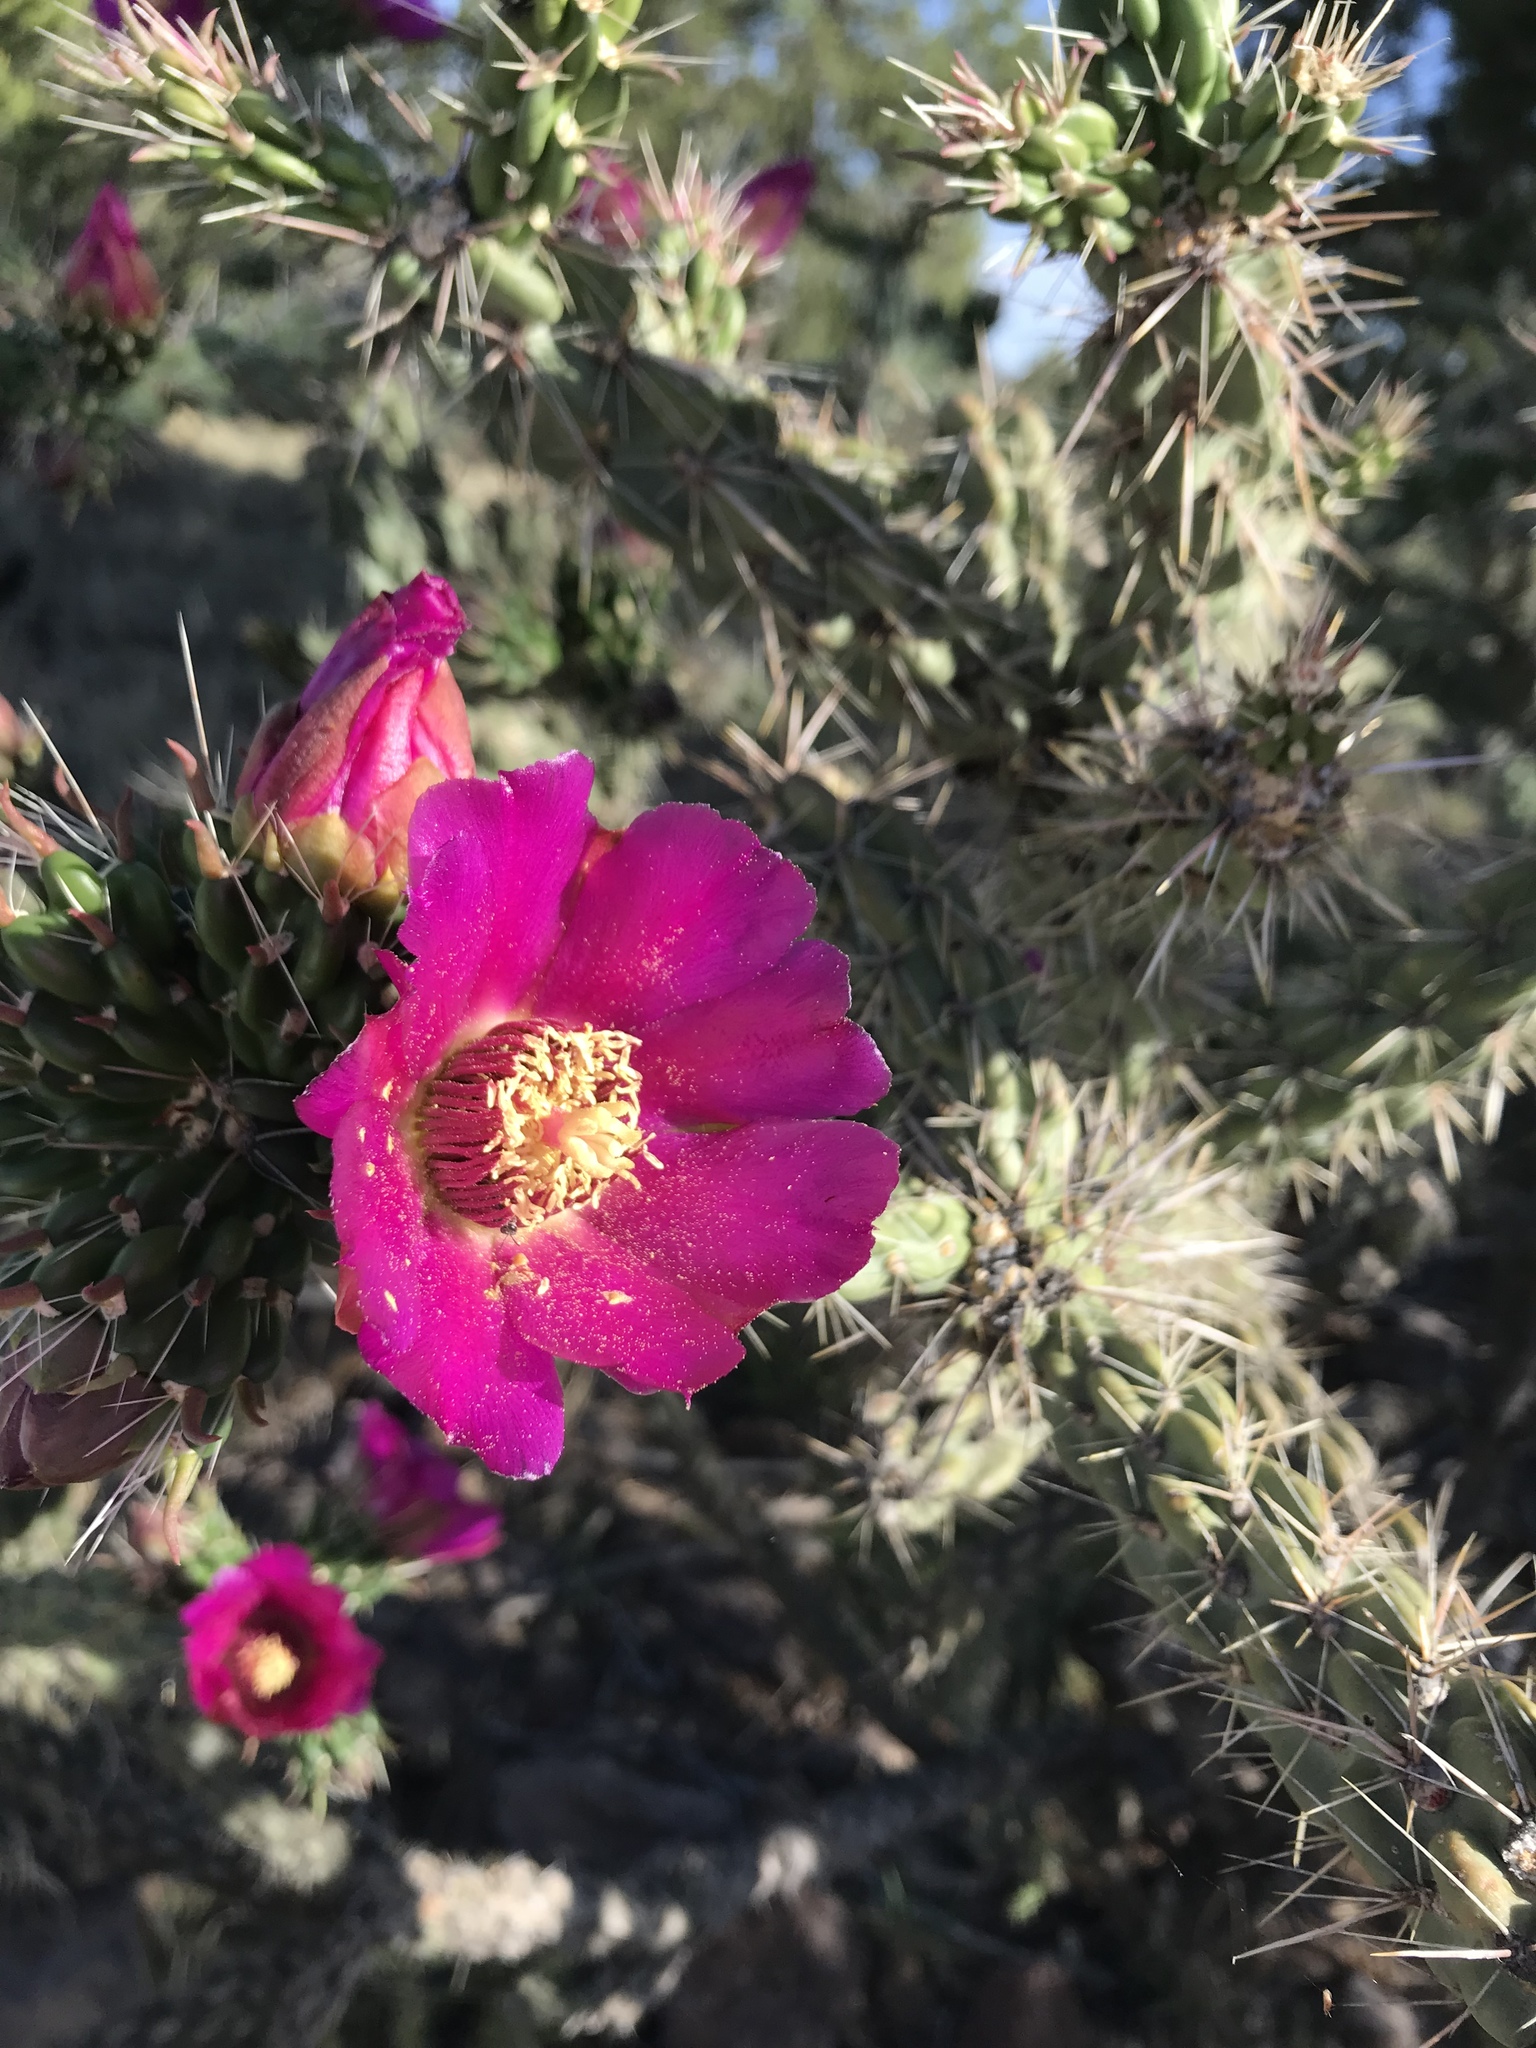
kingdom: Plantae
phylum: Tracheophyta
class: Magnoliopsida
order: Caryophyllales
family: Cactaceae
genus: Cylindropuntia
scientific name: Cylindropuntia imbricata
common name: Candelabrum cactus
